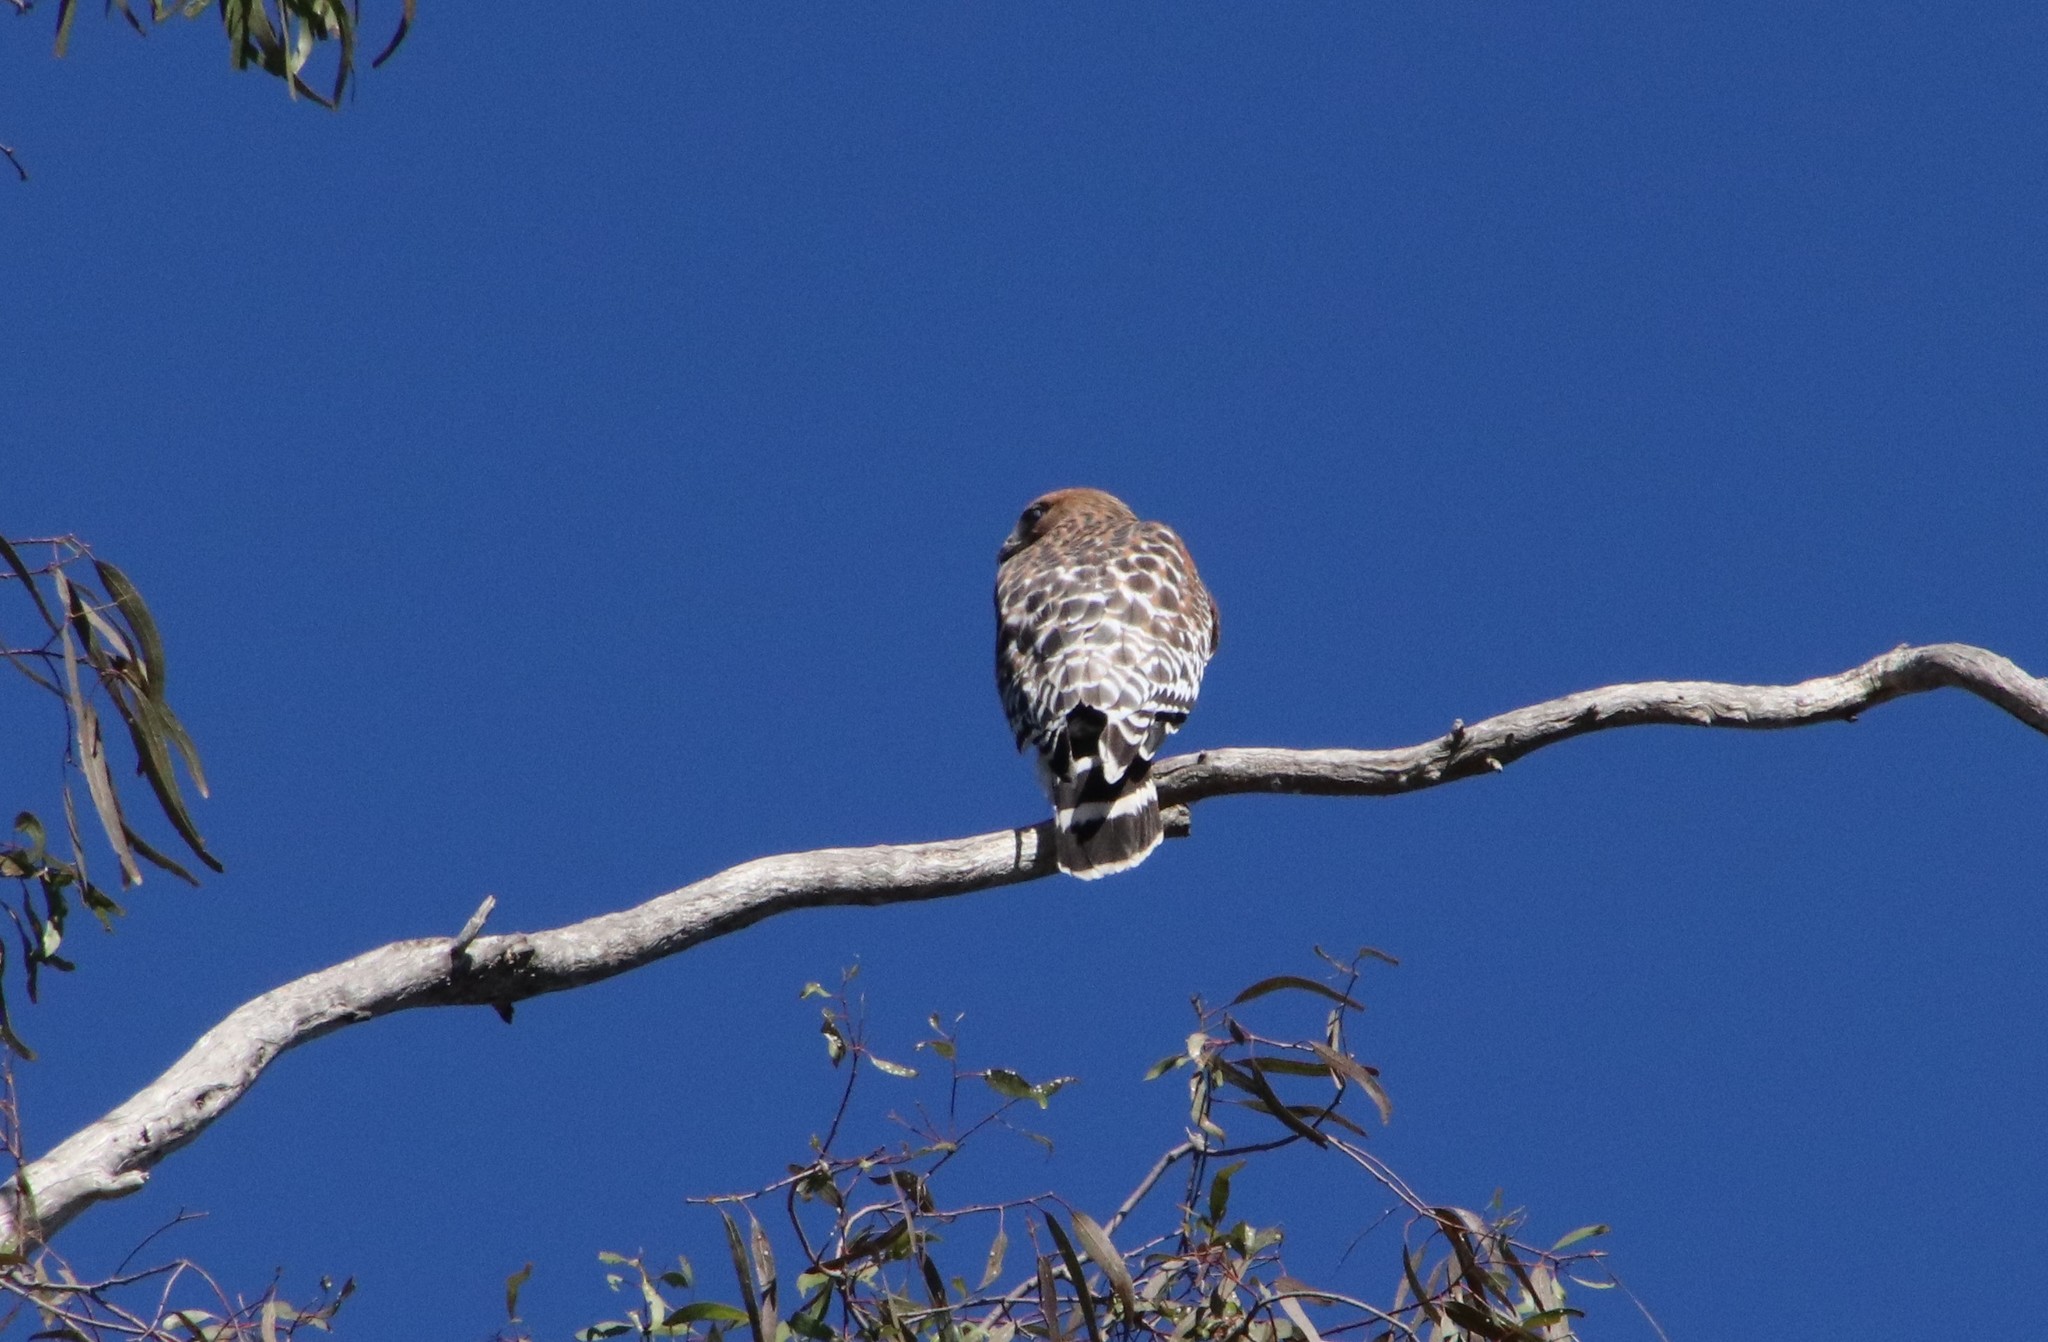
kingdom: Animalia
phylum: Chordata
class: Aves
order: Accipitriformes
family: Accipitridae
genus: Buteo
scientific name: Buteo lineatus
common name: Red-shouldered hawk
